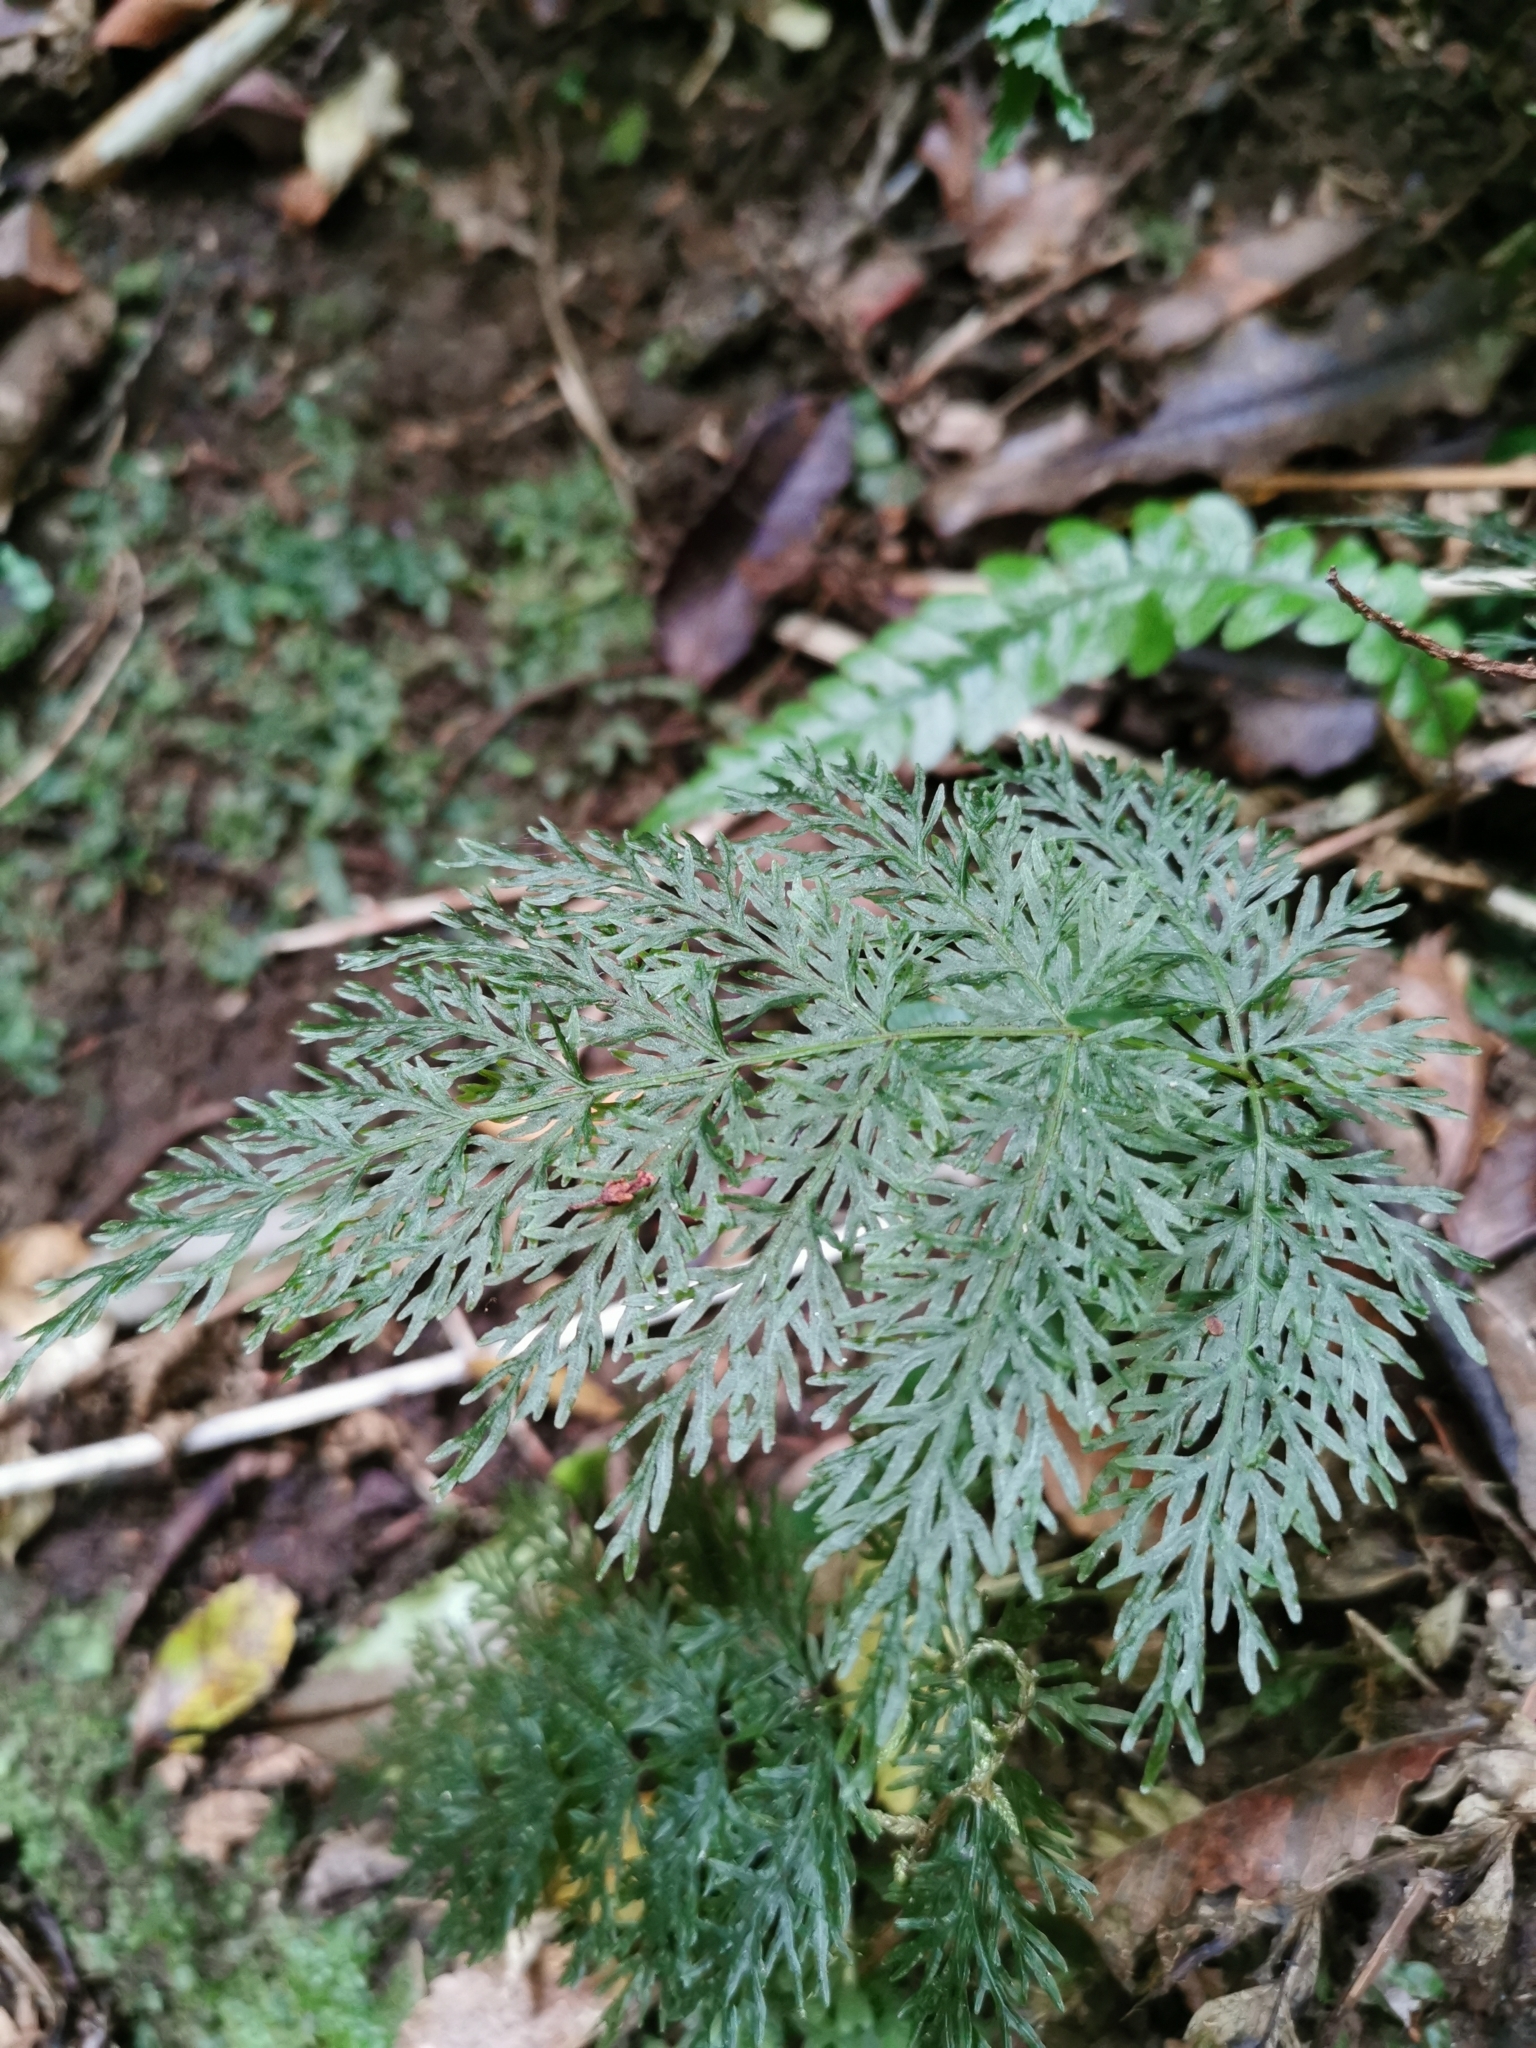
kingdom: Plantae
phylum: Tracheophyta
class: Polypodiopsida
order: Osmundales
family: Osmundaceae
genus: Leptopteris
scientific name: Leptopteris hymenophylloides
